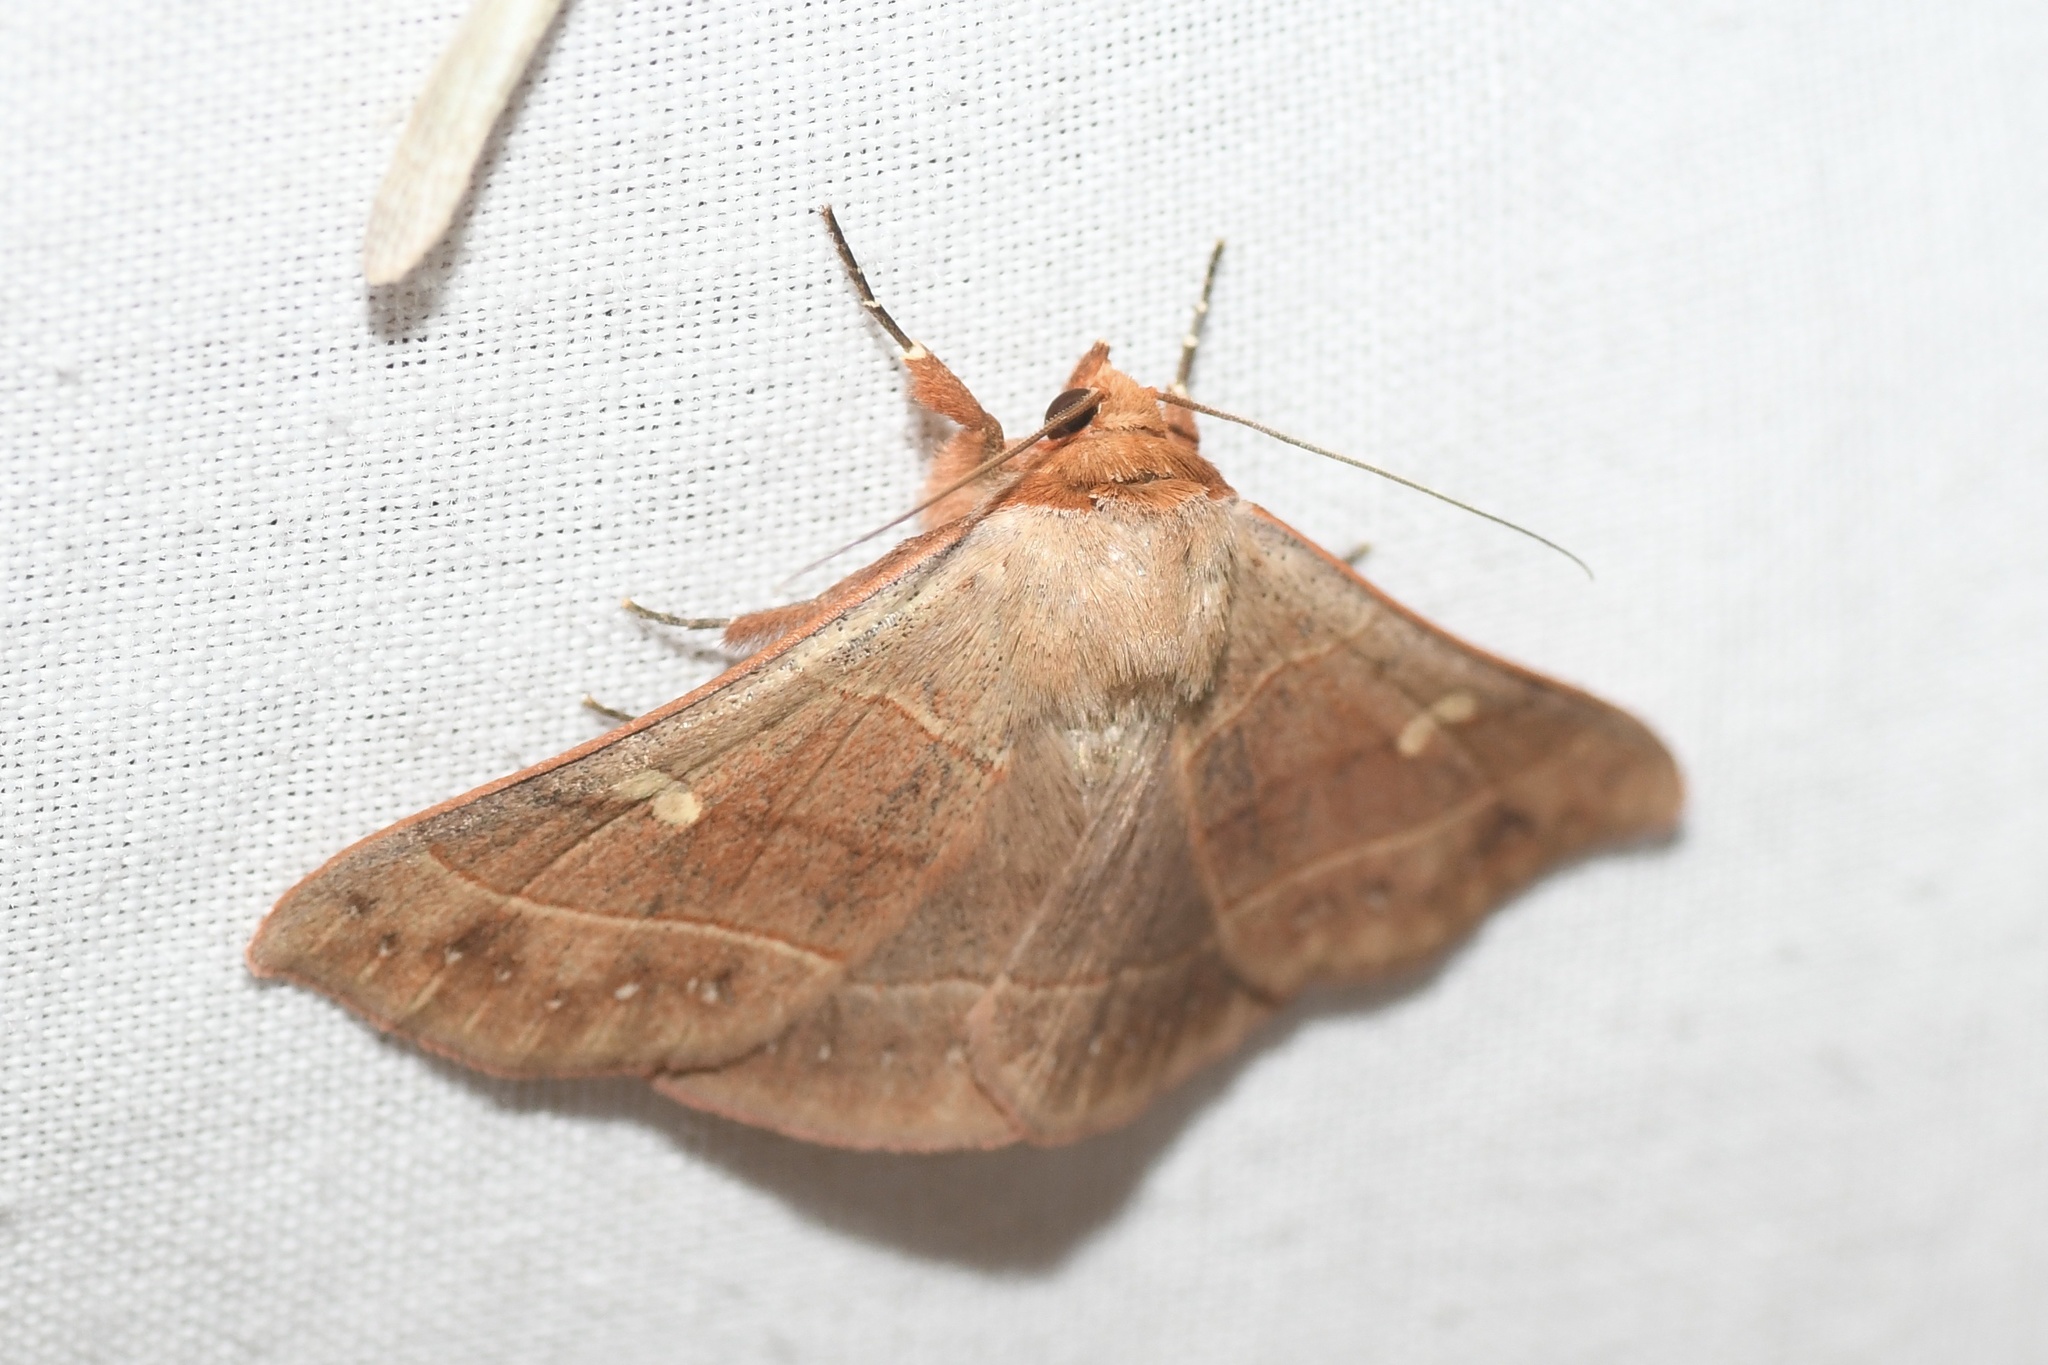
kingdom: Animalia
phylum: Arthropoda
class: Insecta
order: Lepidoptera
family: Erebidae
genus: Panopoda
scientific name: Panopoda rufimargo
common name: Red-lined panopoda moth
